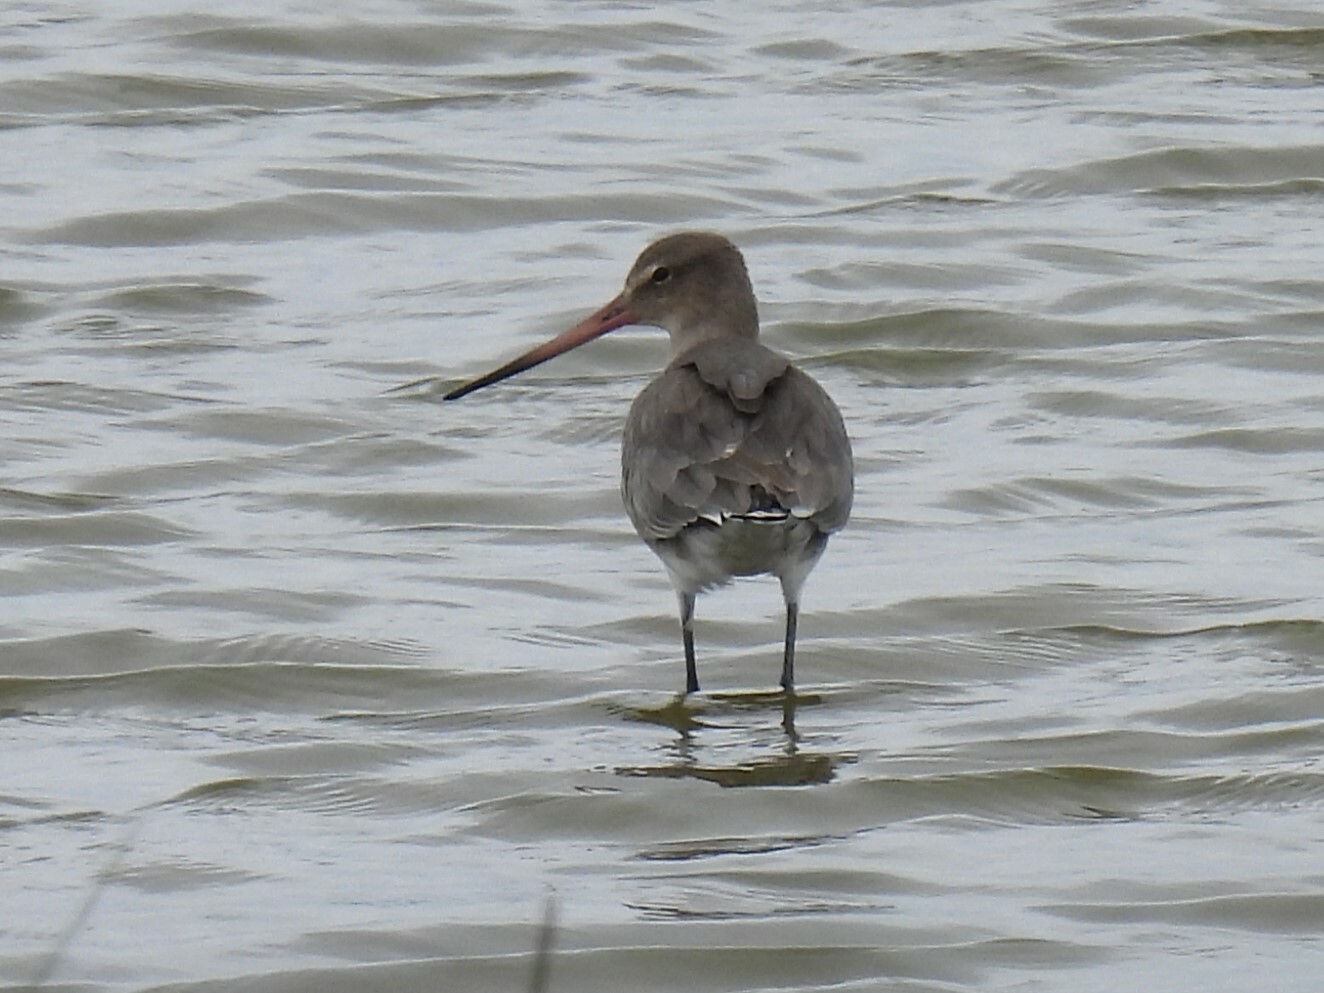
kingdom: Animalia
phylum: Chordata
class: Aves
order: Charadriiformes
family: Scolopacidae
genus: Limosa
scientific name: Limosa limosa
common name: Black-tailed godwit
